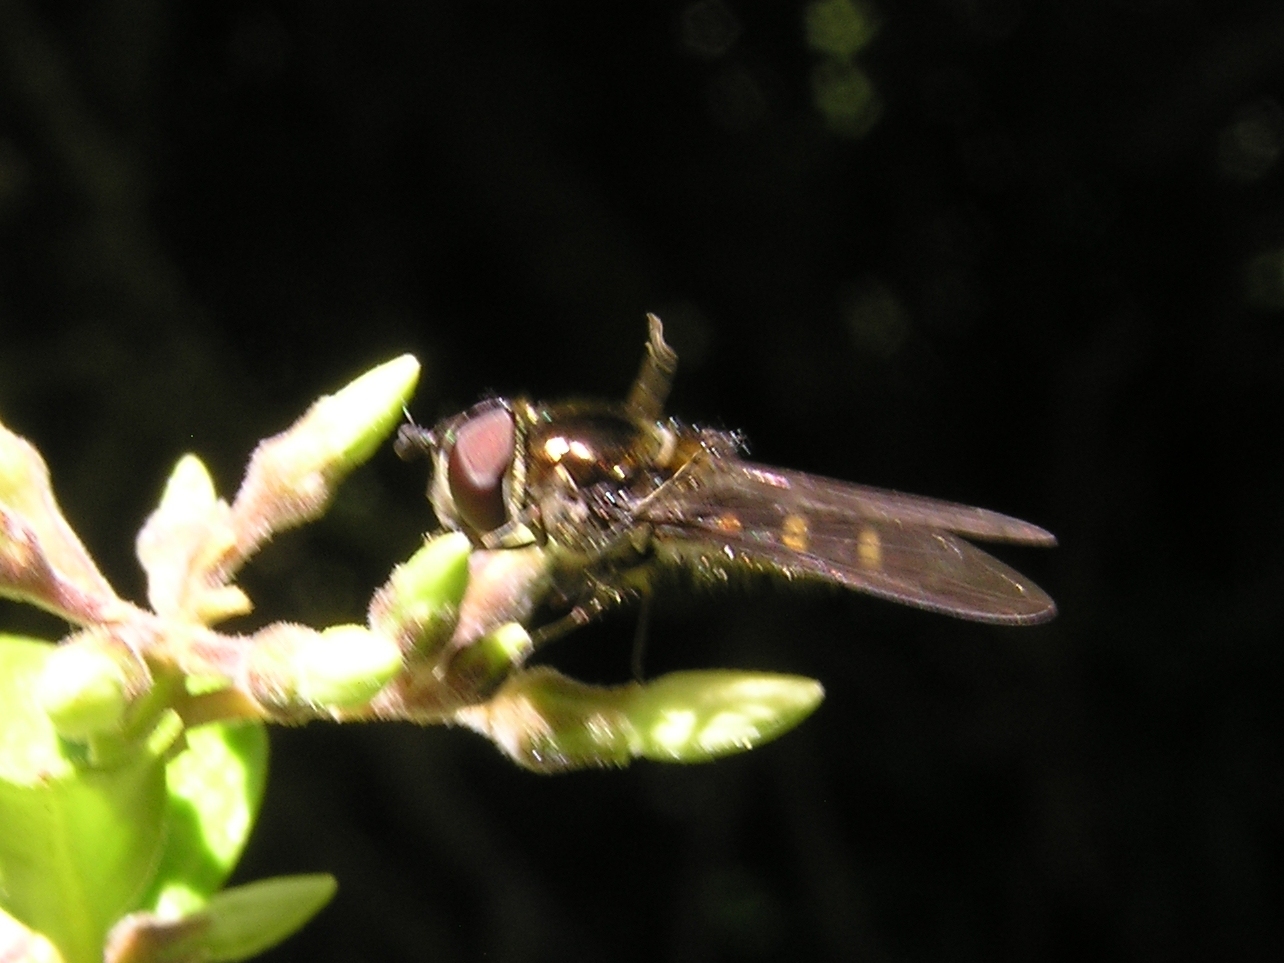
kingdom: Animalia
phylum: Arthropoda
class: Insecta
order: Diptera
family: Syrphidae
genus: Melangyna
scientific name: Melangyna novaezelandiae
